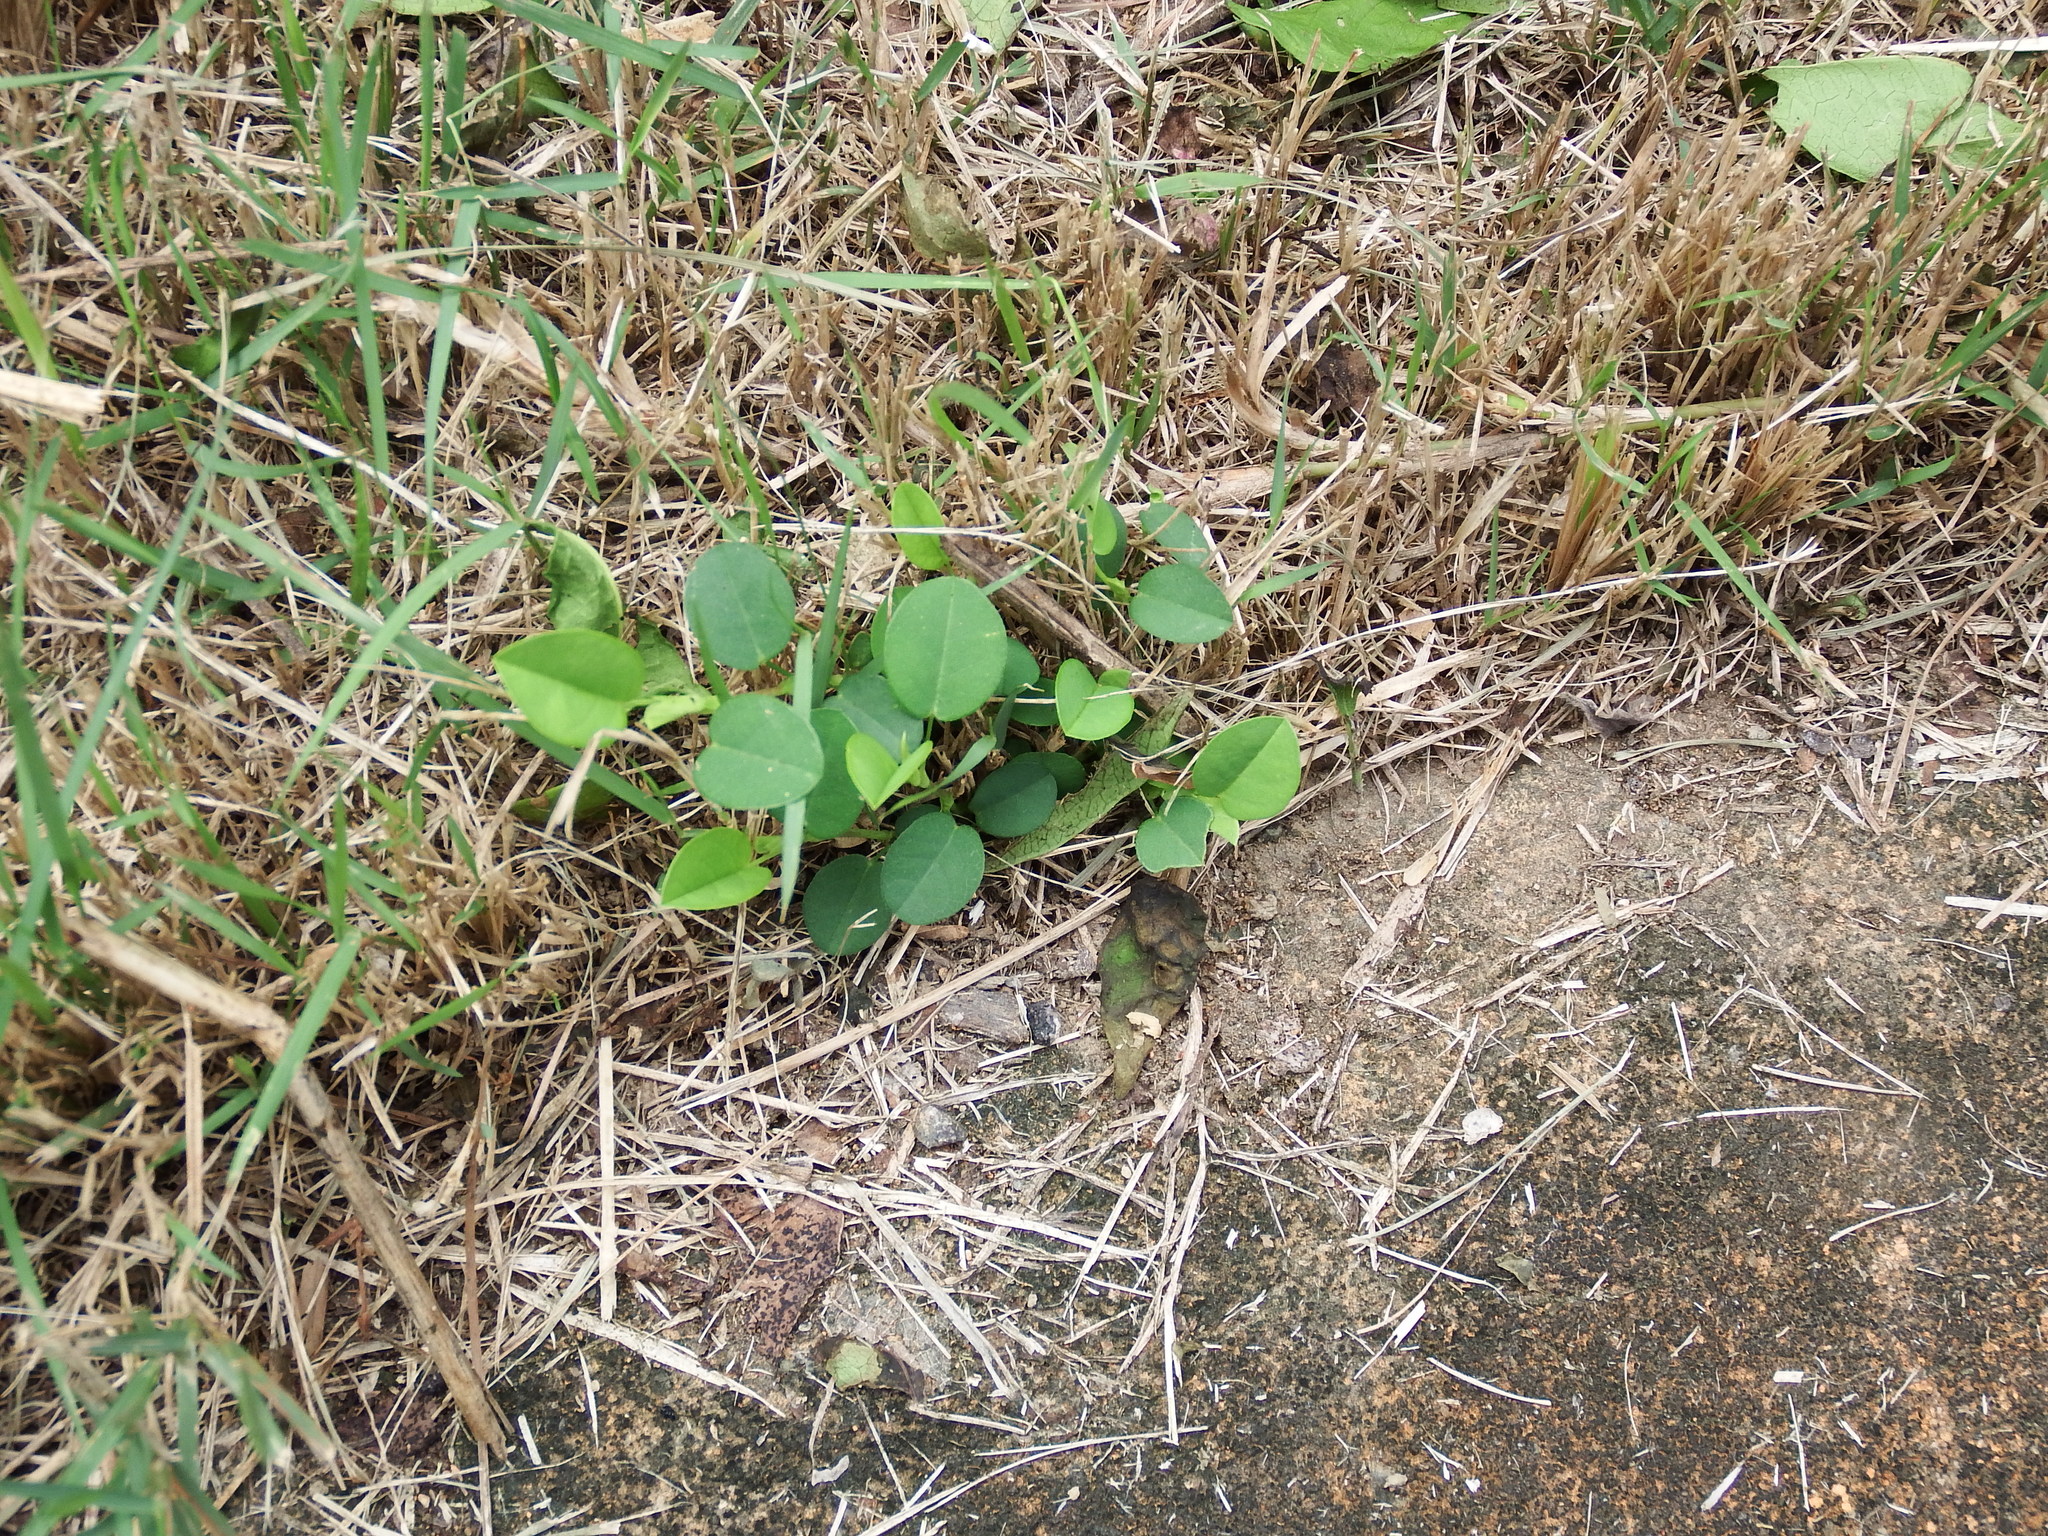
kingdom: Plantae
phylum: Tracheophyta
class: Magnoliopsida
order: Fabales
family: Fabaceae
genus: Alysicarpus
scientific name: Alysicarpus vaginalis
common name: White moneywort
